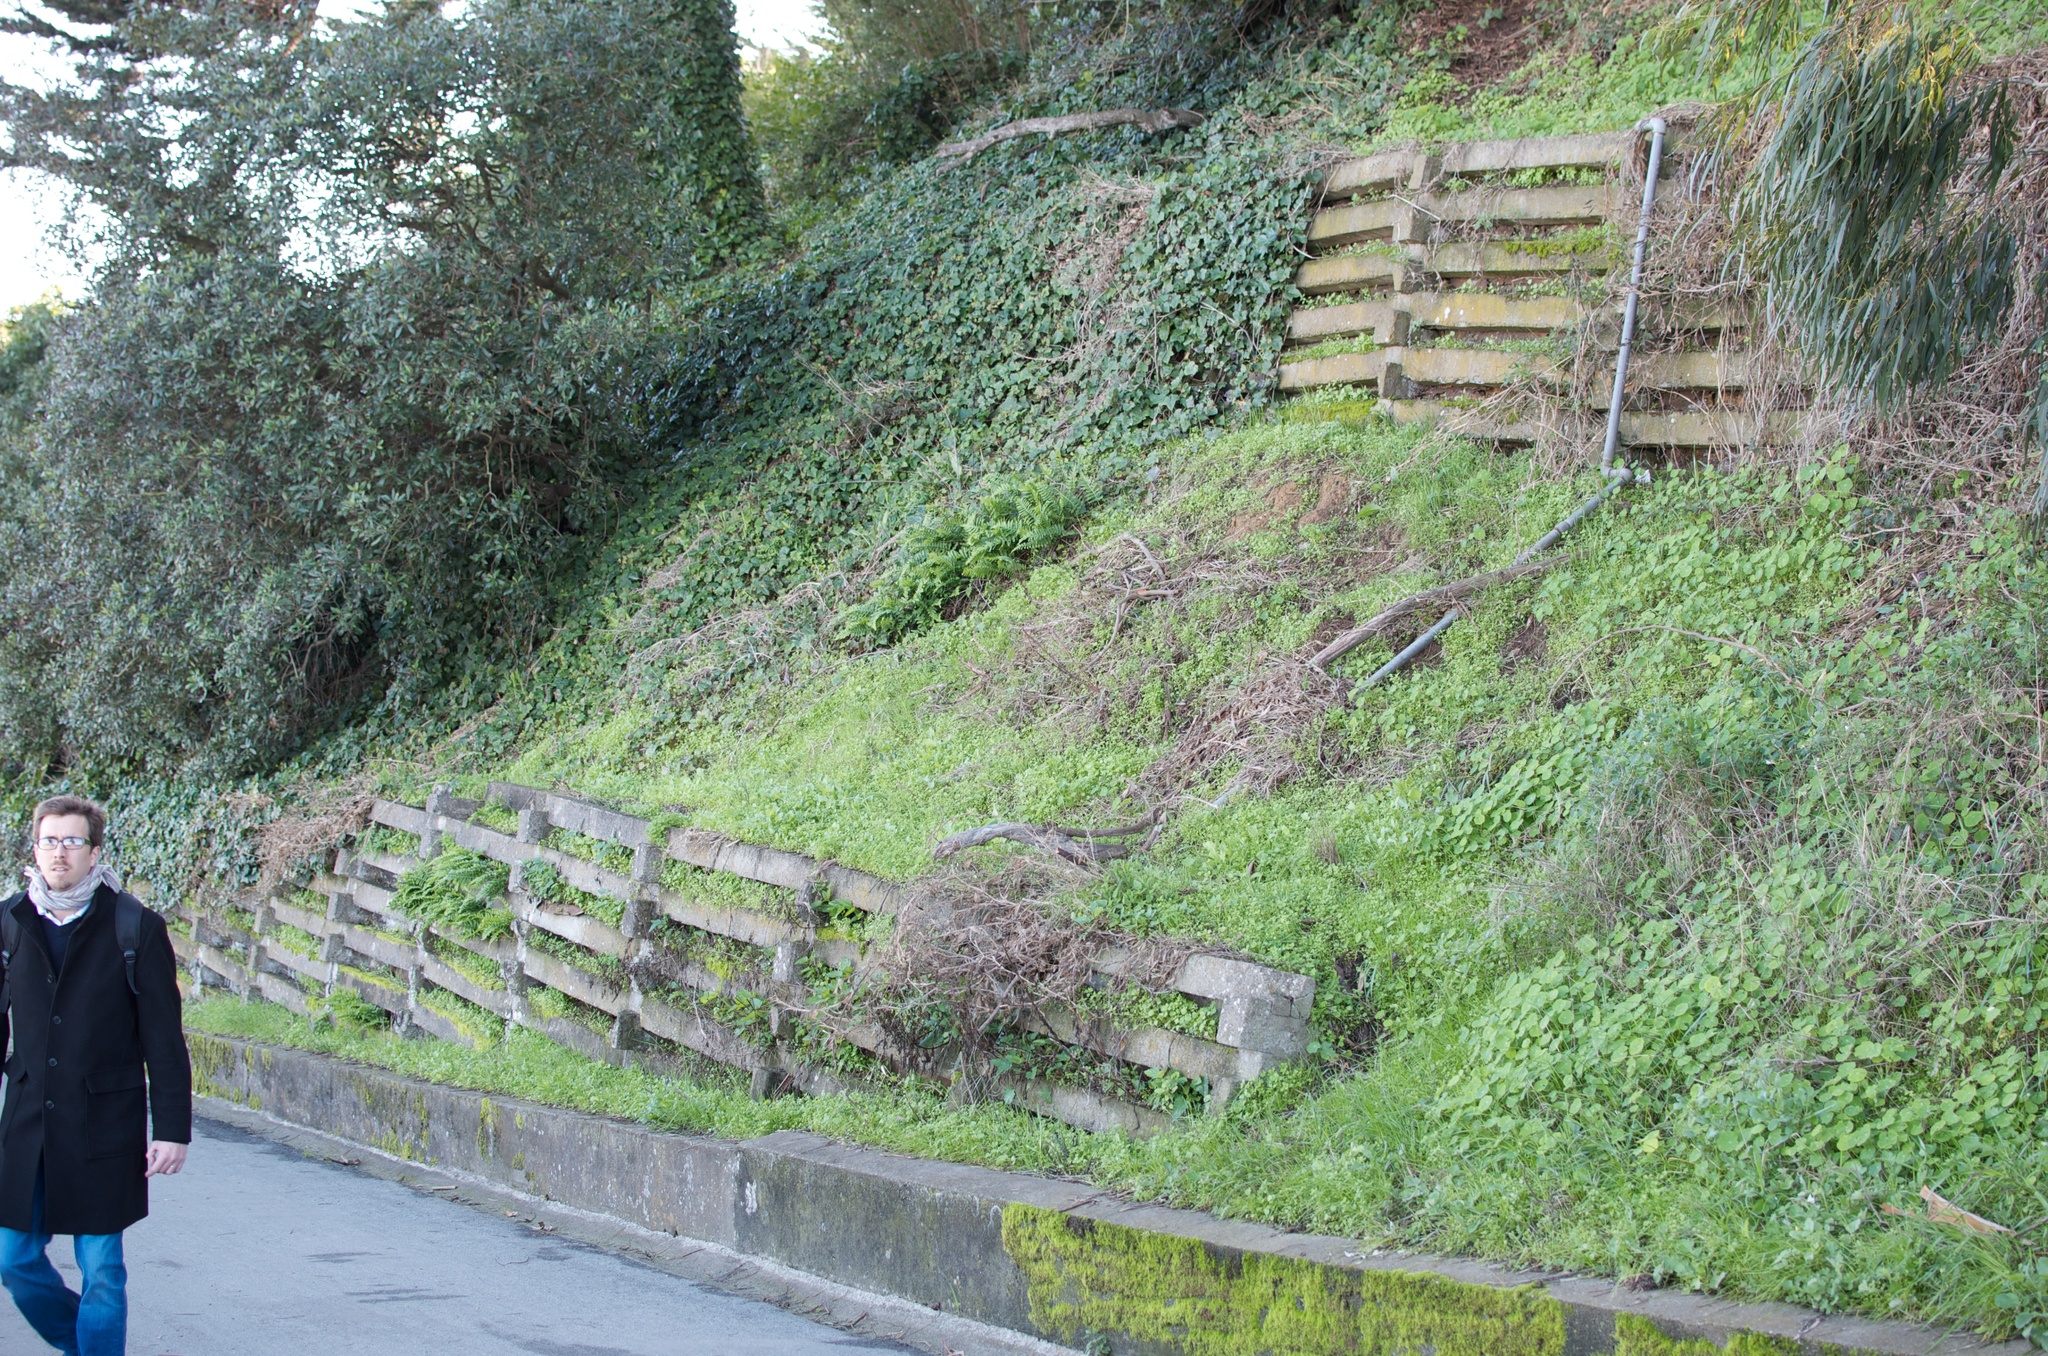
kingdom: Plantae
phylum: Tracheophyta
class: Magnoliopsida
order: Brassicales
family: Tropaeolaceae
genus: Tropaeolum
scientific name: Tropaeolum majus
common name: Nasturtium
